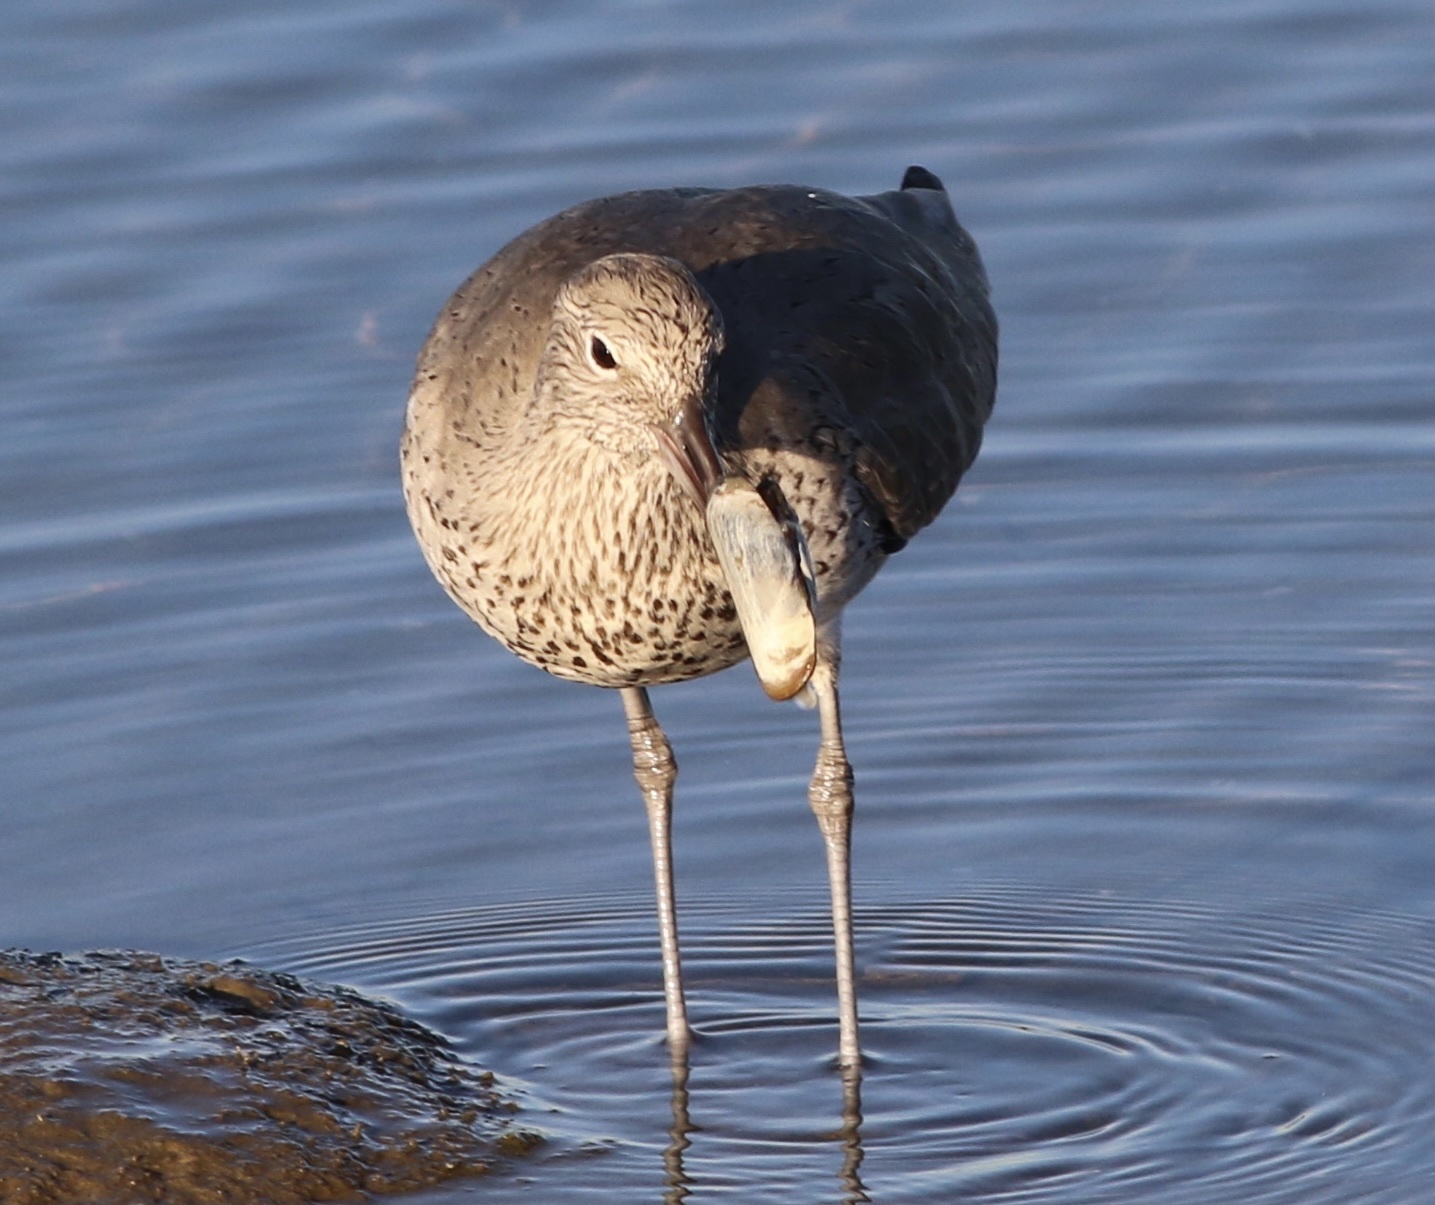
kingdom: Animalia
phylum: Chordata
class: Aves
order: Charadriiformes
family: Scolopacidae
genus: Tringa
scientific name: Tringa semipalmata
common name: Willet
